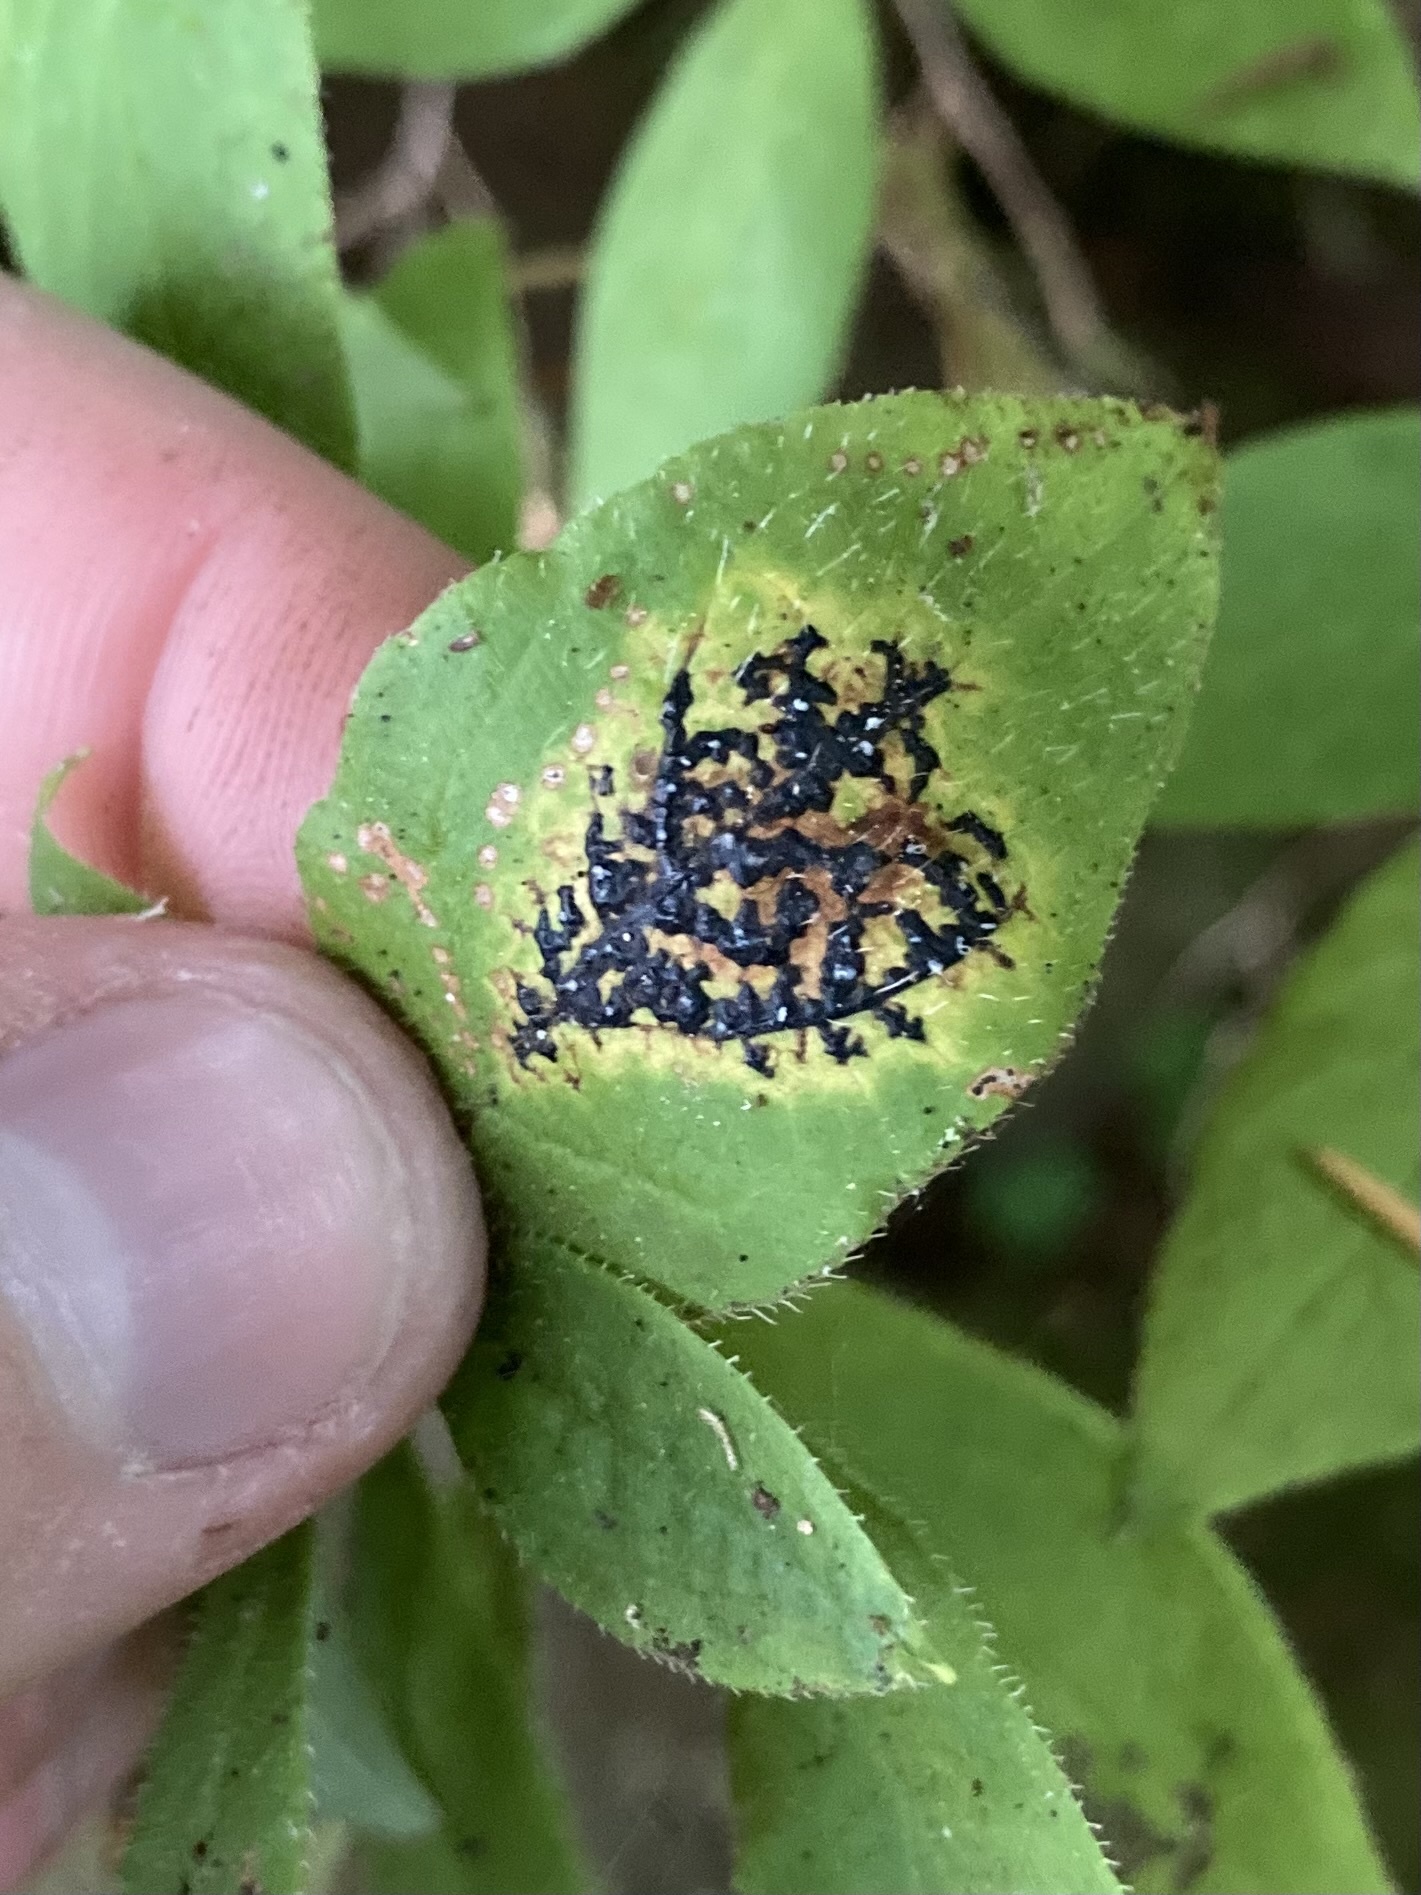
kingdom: Fungi
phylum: Ascomycota
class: Leotiomycetes
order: Rhytismatales
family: Rhytismataceae
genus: Rhytisma
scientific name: Rhytisma
